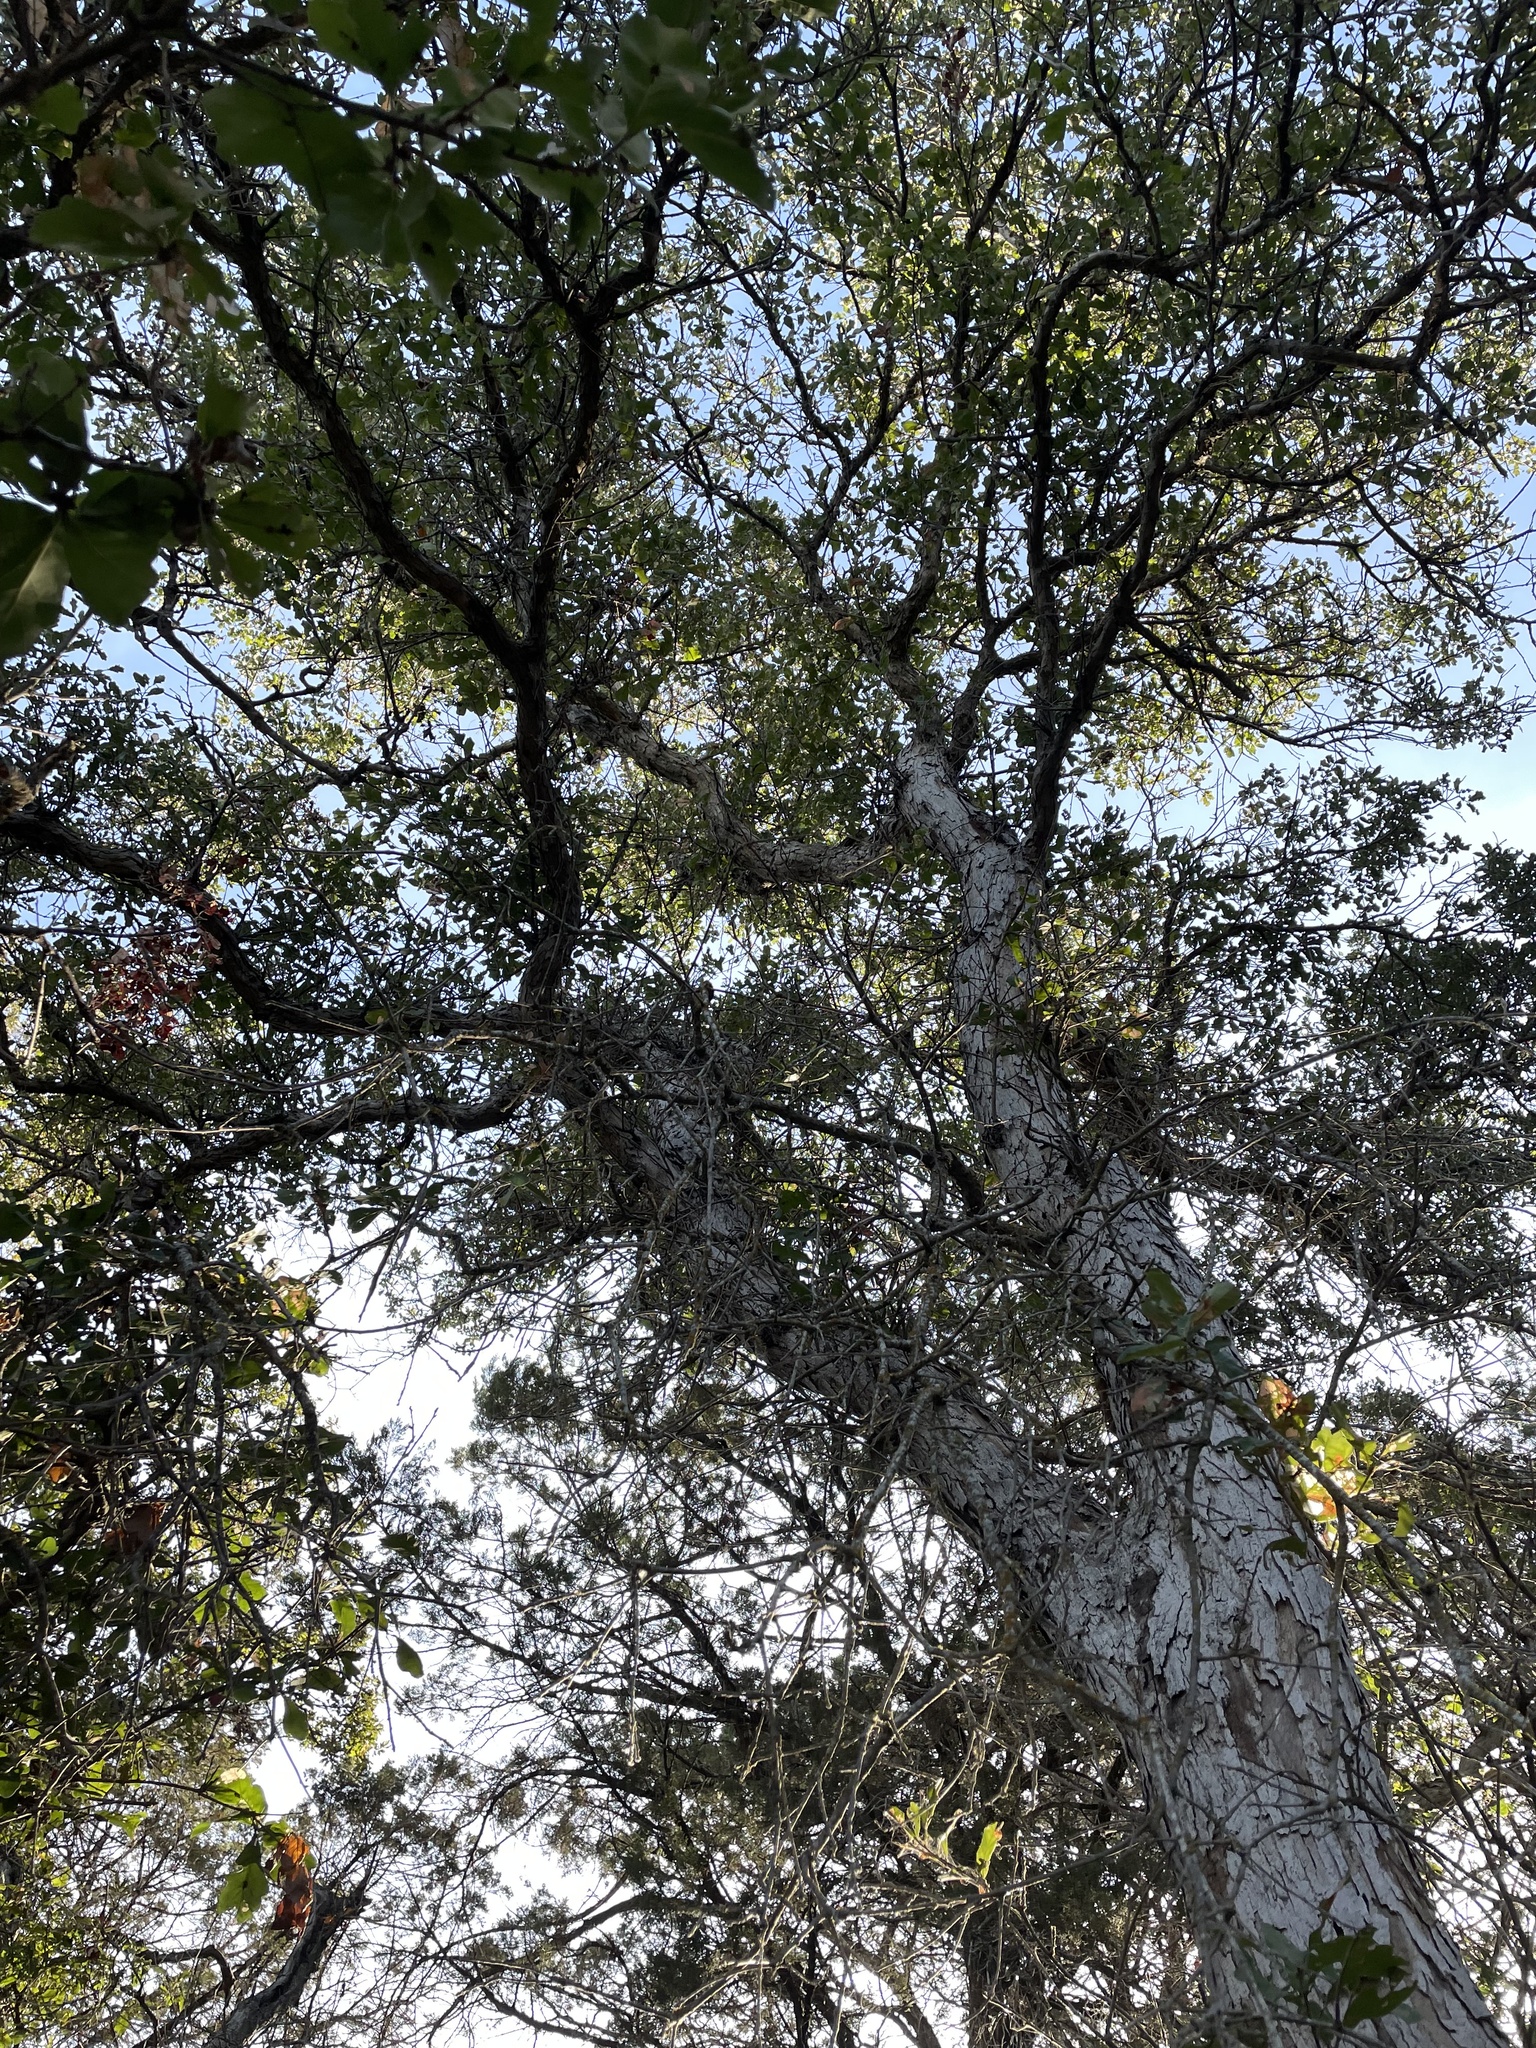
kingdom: Plantae
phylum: Tracheophyta
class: Magnoliopsida
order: Fagales
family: Fagaceae
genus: Quercus
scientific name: Quercus sinuata
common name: Durand oak
